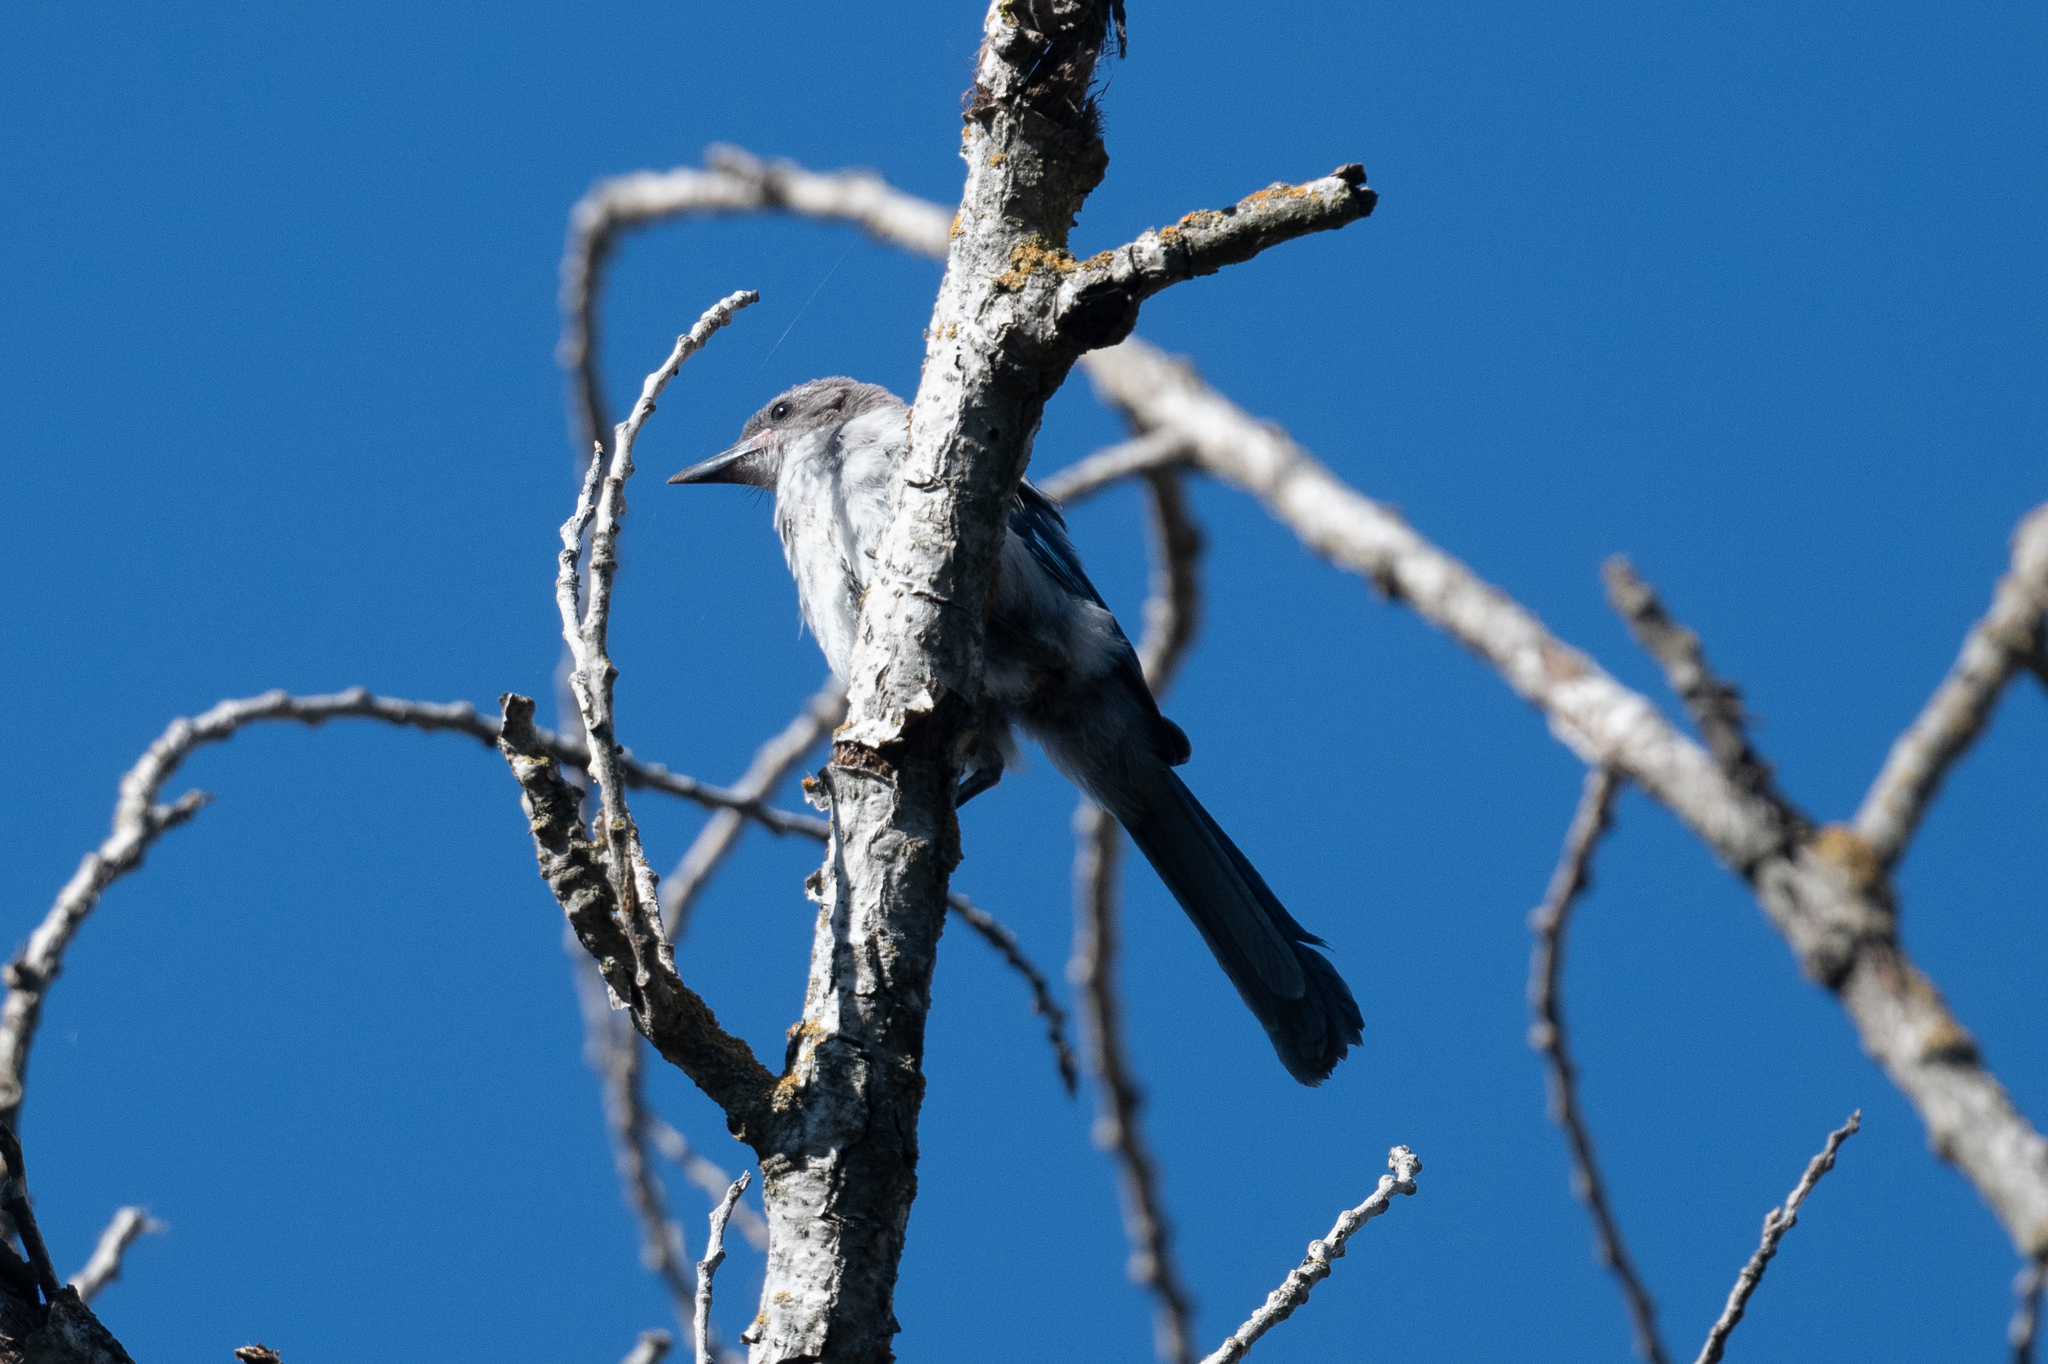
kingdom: Animalia
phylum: Chordata
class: Aves
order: Passeriformes
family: Corvidae
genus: Aphelocoma
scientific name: Aphelocoma californica
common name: California scrub-jay
